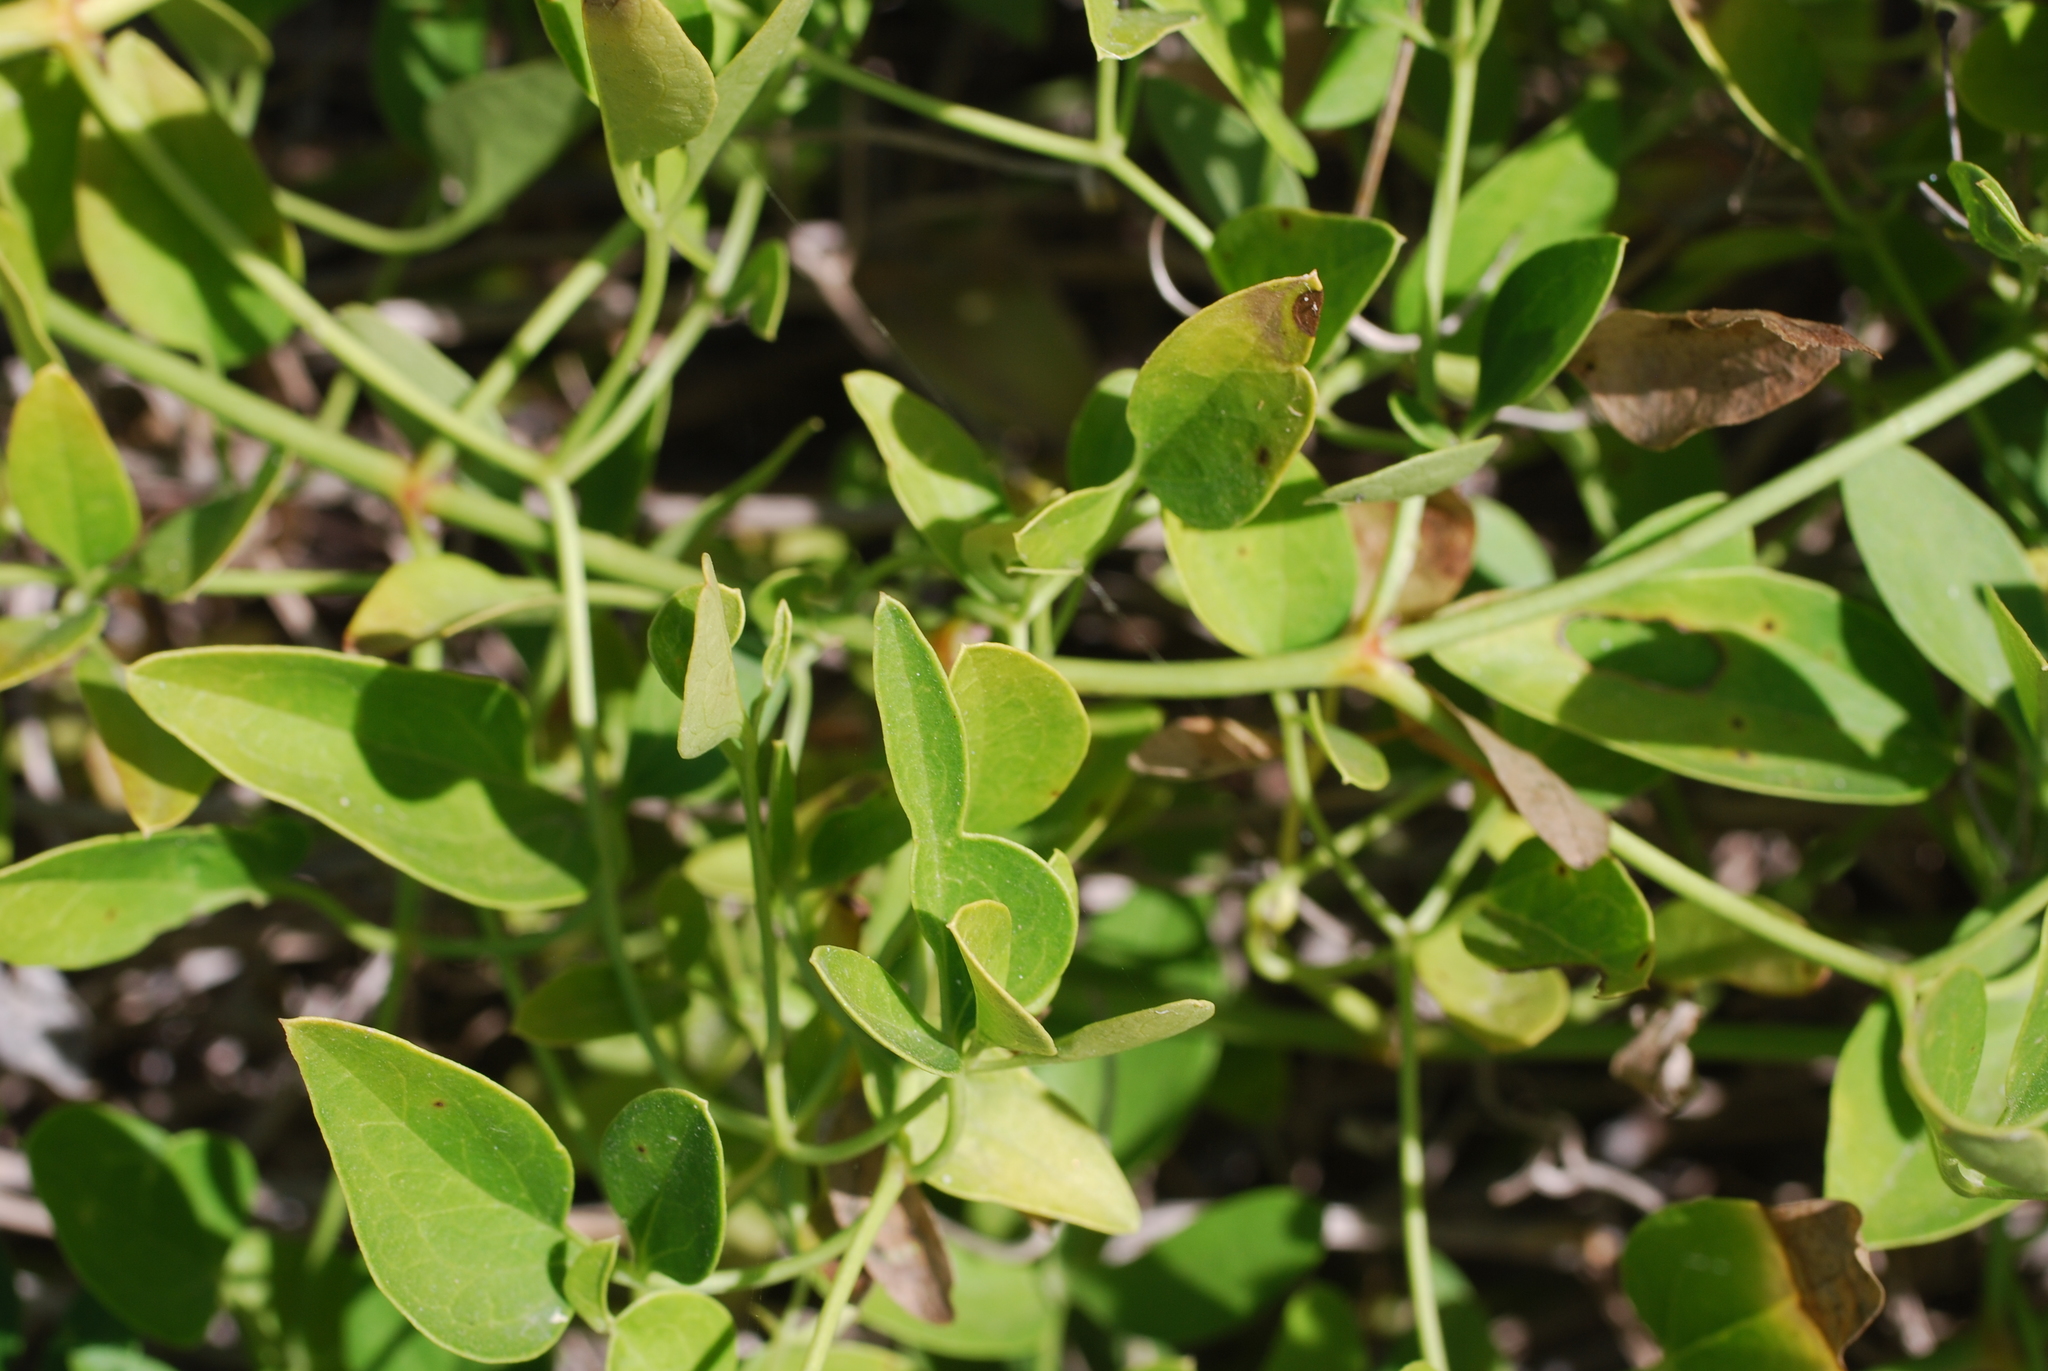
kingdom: Plantae
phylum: Tracheophyta
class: Magnoliopsida
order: Ranunculales
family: Ranunculaceae
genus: Clematis
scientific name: Clematis flammula
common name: Virgin's-bower
